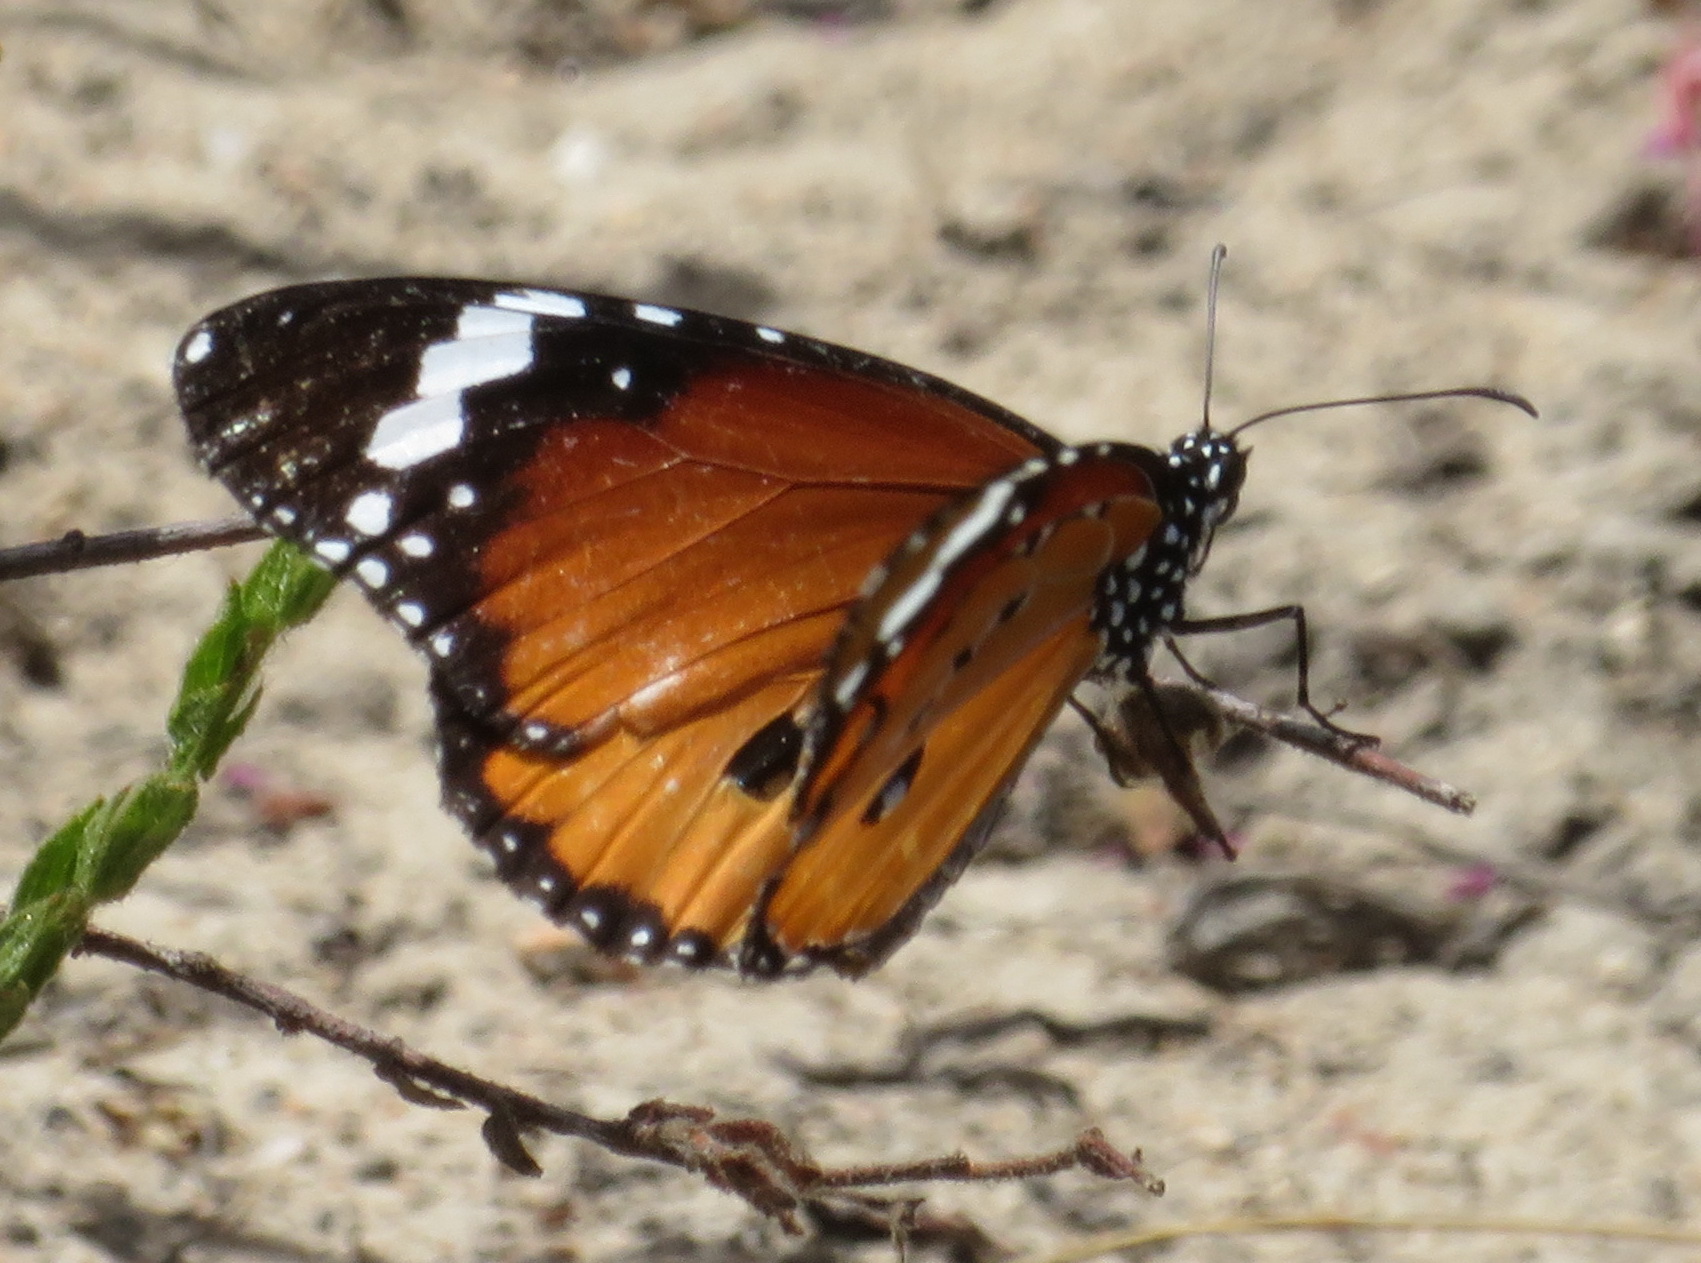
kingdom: Animalia
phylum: Arthropoda
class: Insecta
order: Lepidoptera
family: Nymphalidae
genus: Danaus
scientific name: Danaus chrysippus
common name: Plain tiger
